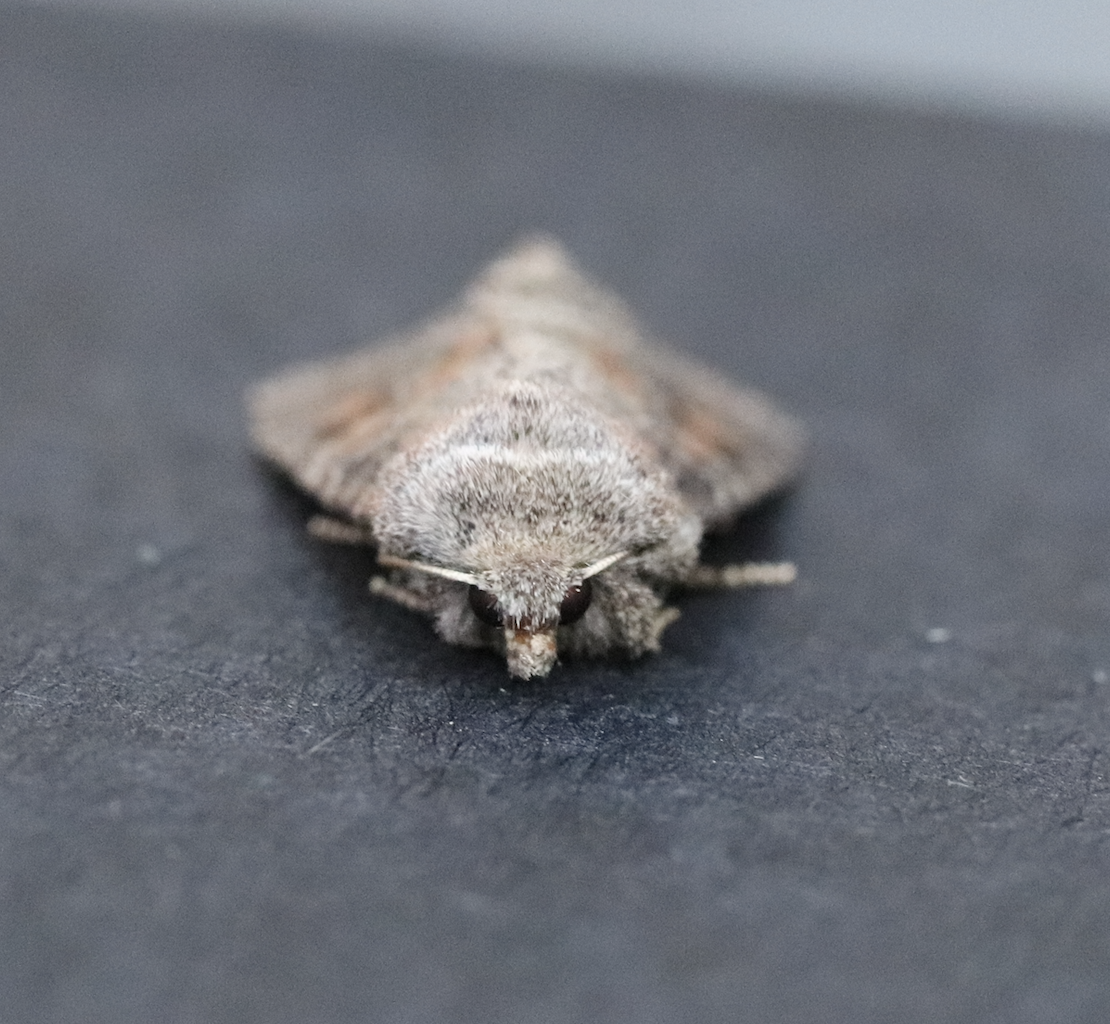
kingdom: Animalia
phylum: Arthropoda
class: Insecta
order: Lepidoptera
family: Noctuidae
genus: Parastichtis
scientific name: Parastichtis suspecta
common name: Suspected
